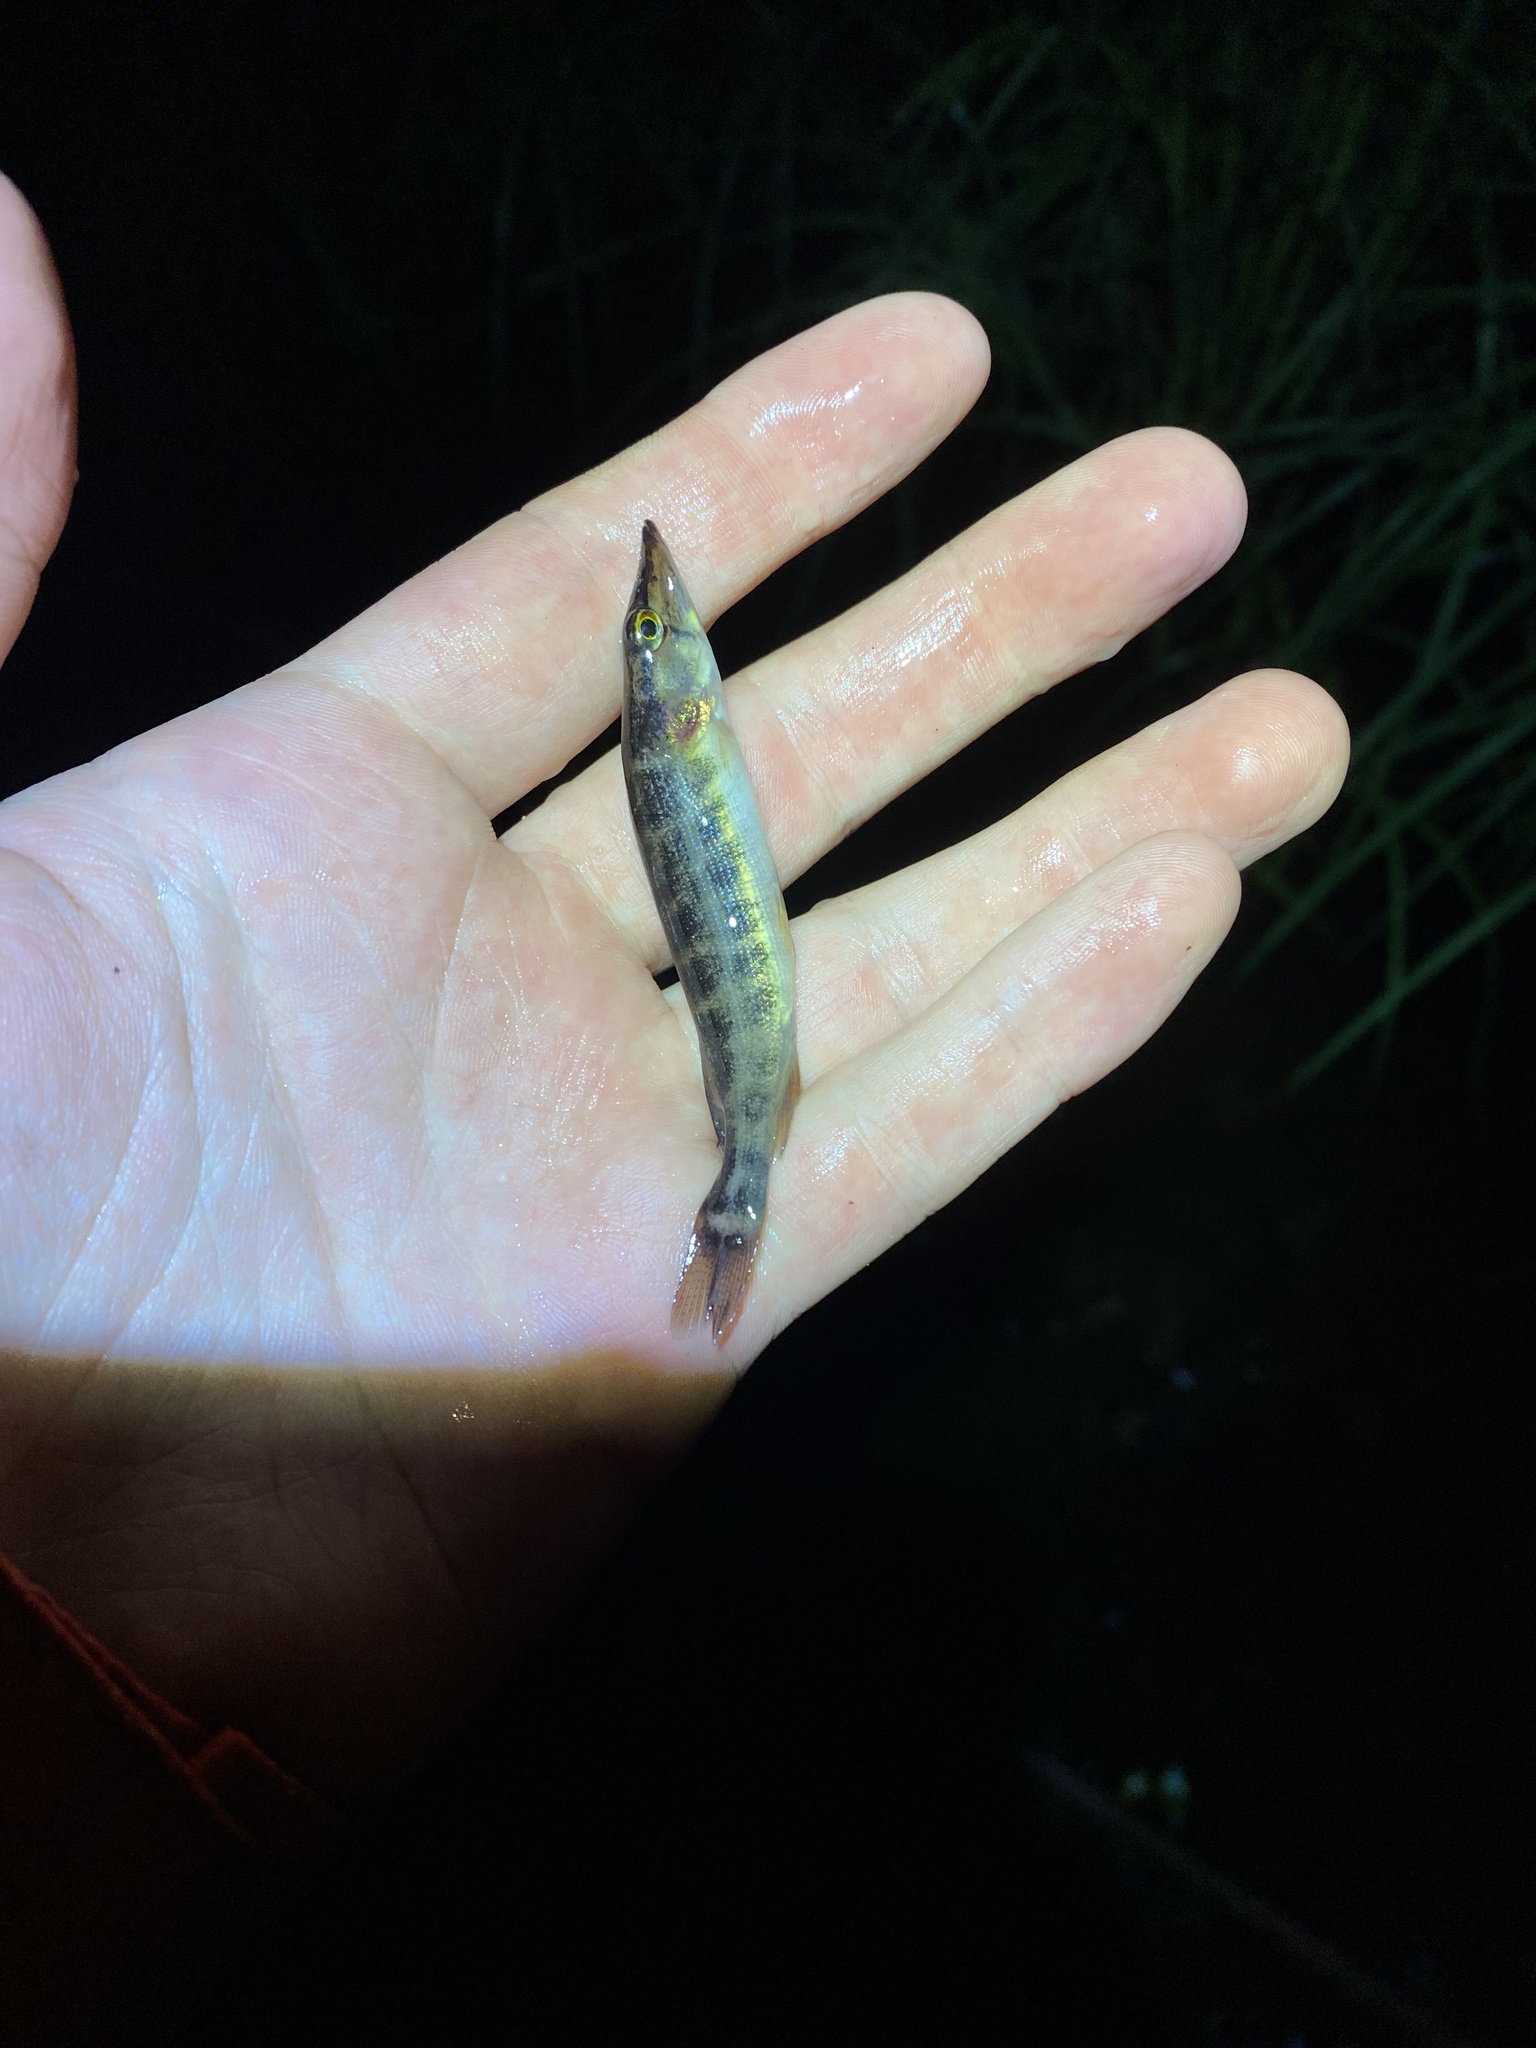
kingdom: Animalia
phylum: Chordata
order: Esociformes
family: Esocidae
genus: Esox
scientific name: Esox americanus
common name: Redfin pickerel
